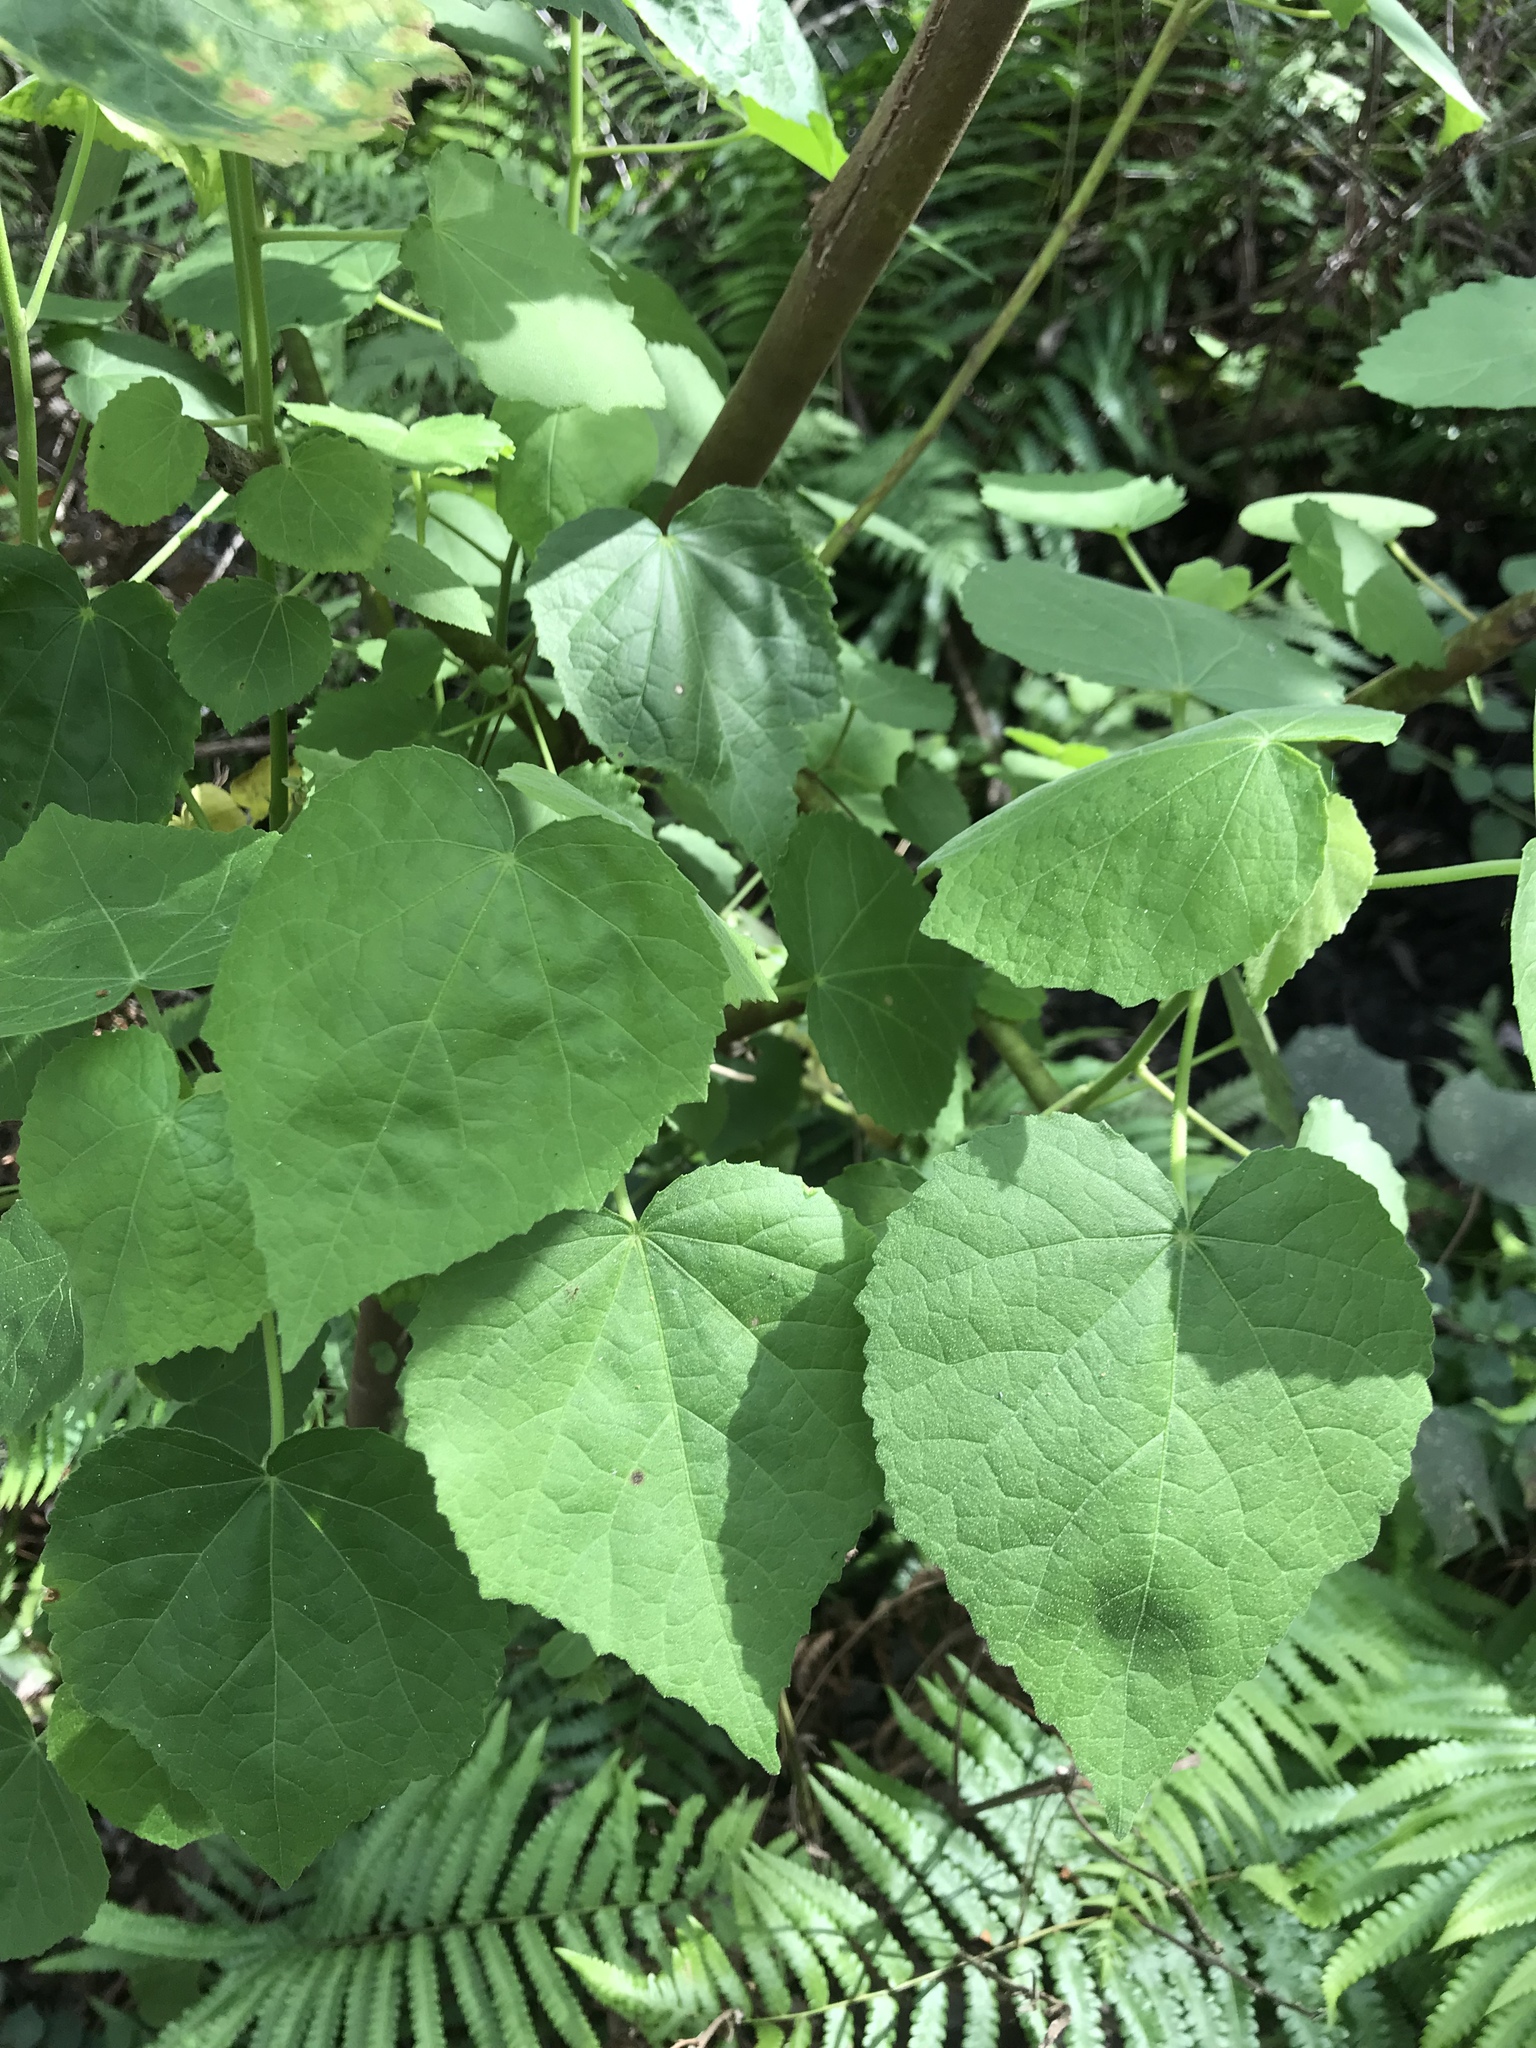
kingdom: Plantae
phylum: Tracheophyta
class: Magnoliopsida
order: Malvales
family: Malvaceae
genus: Malvaviscus
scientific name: Malvaviscus arboreus
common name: Wax mallow
